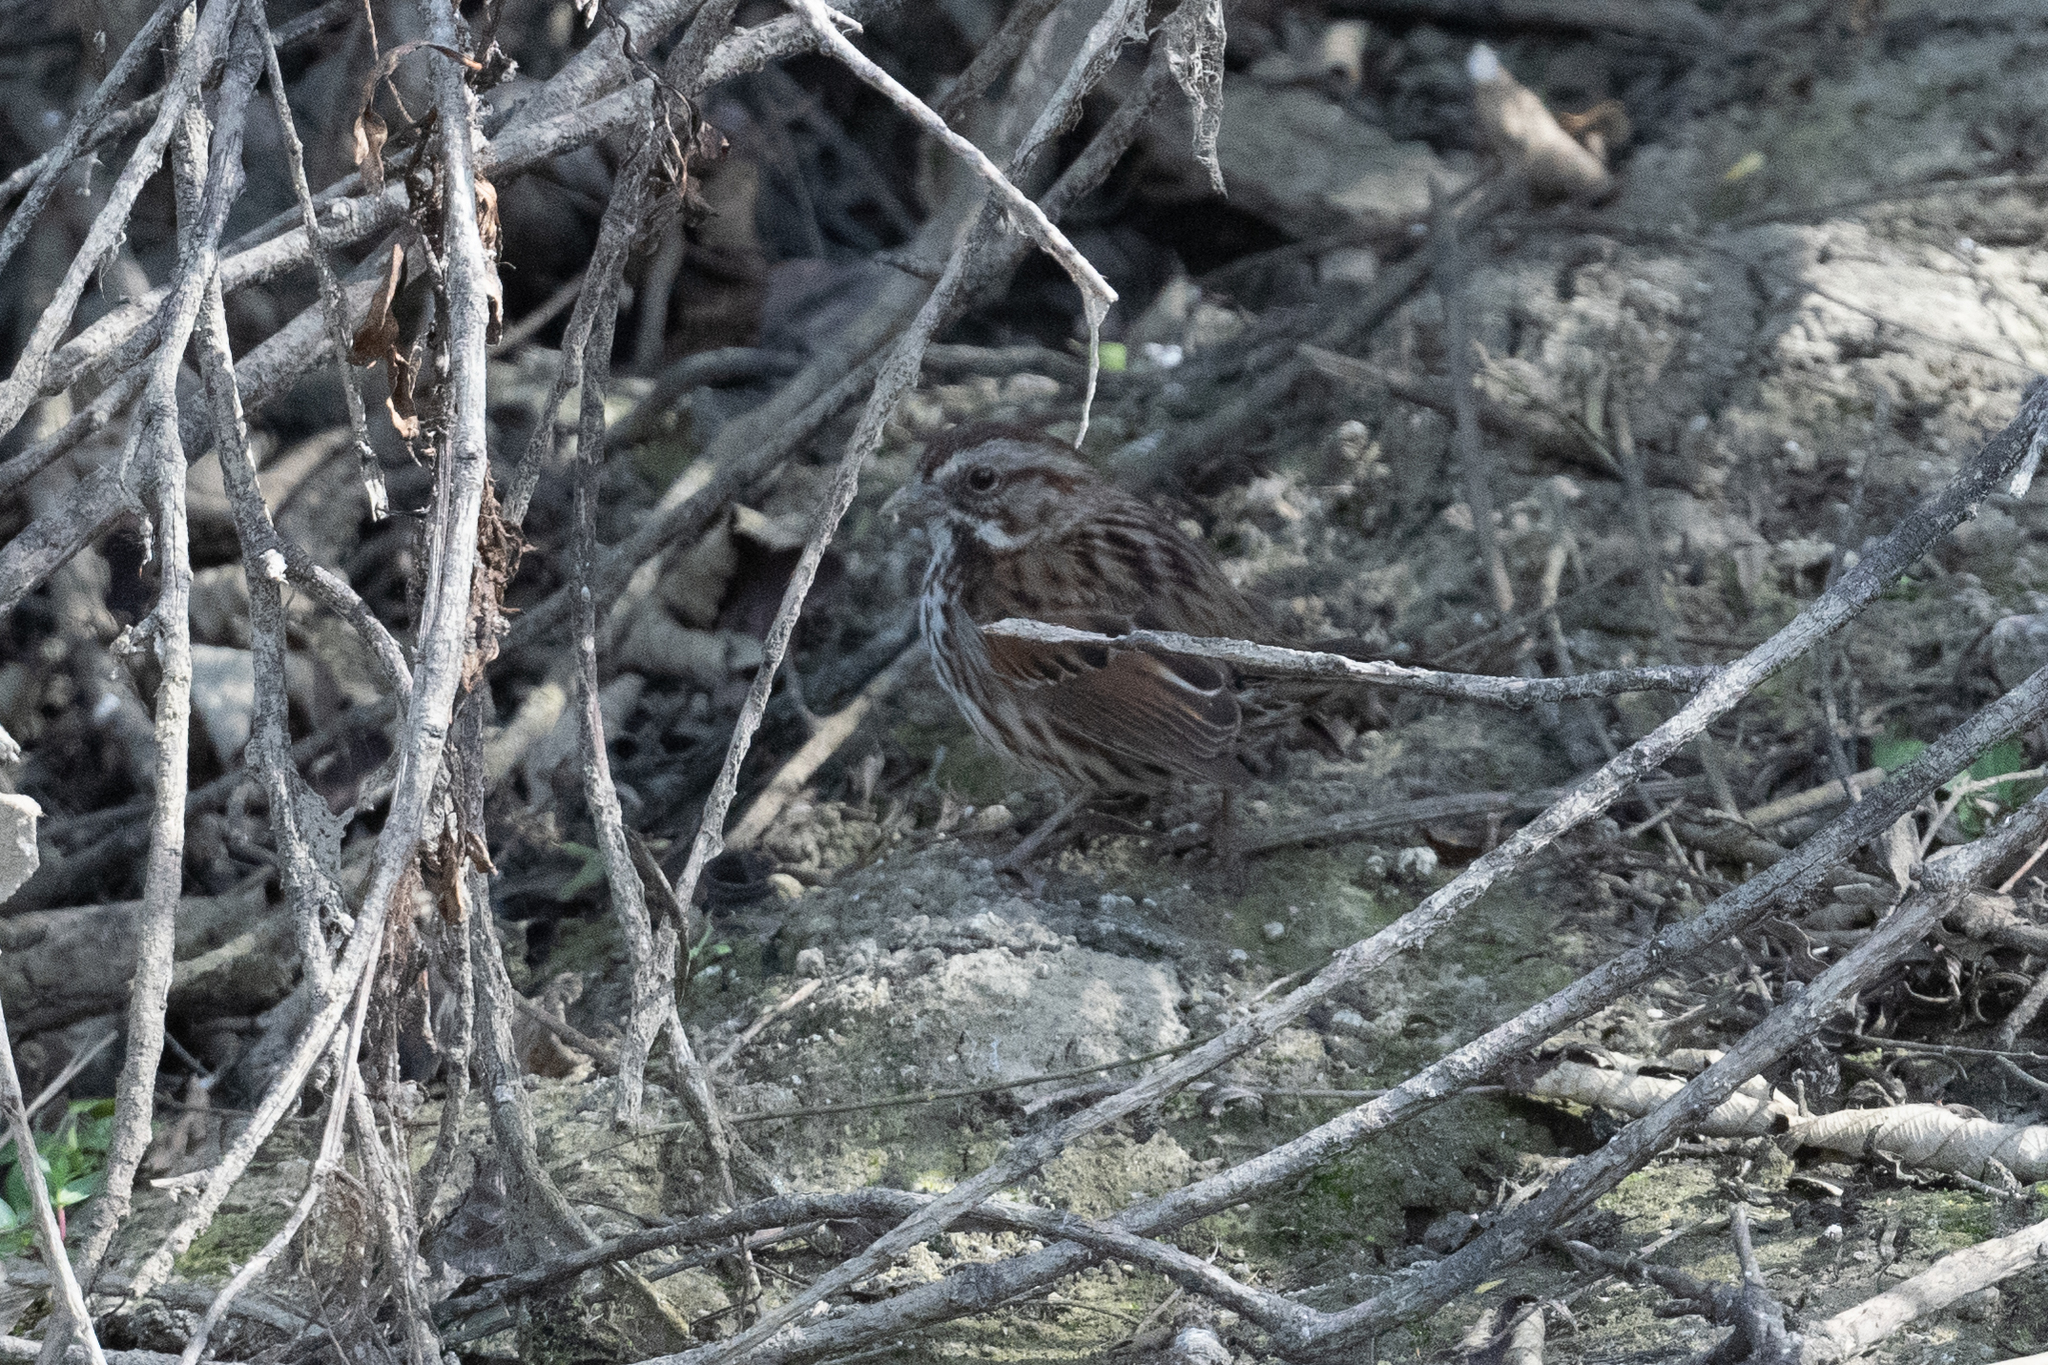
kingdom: Animalia
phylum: Chordata
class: Aves
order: Passeriformes
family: Passerellidae
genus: Melospiza
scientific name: Melospiza melodia
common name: Song sparrow
